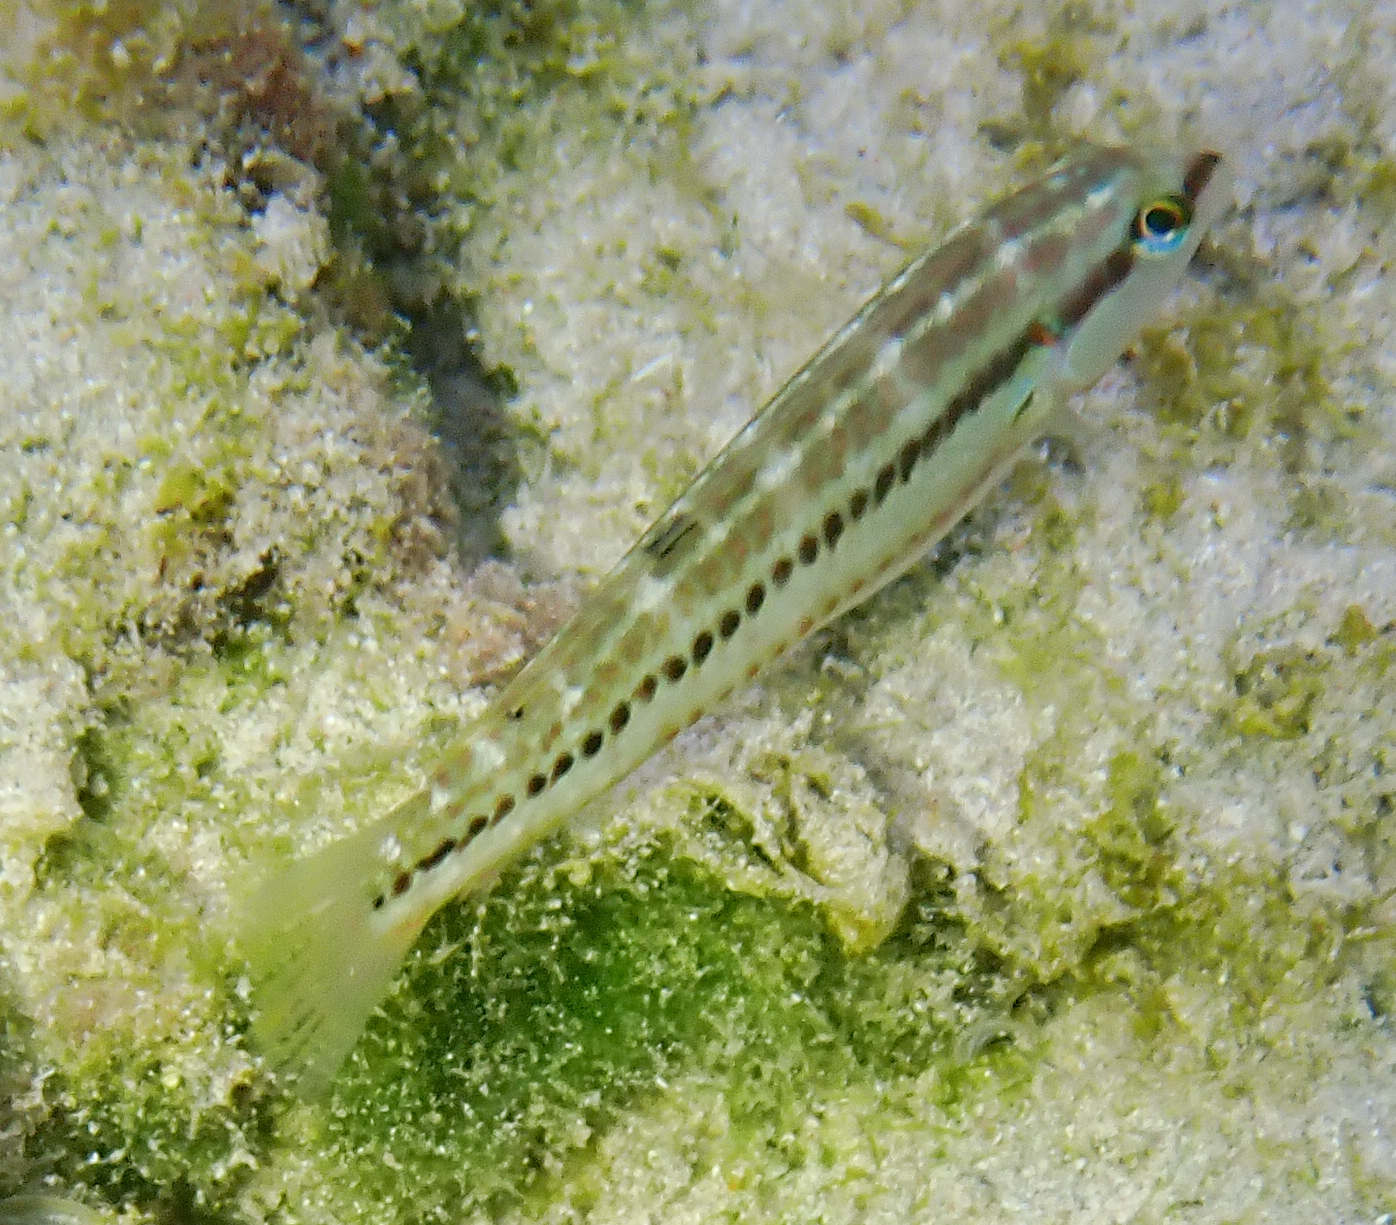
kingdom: Animalia
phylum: Chordata
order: Perciformes
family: Labridae
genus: Halichoeres
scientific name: Halichoeres bivittatus
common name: Slippery dick
